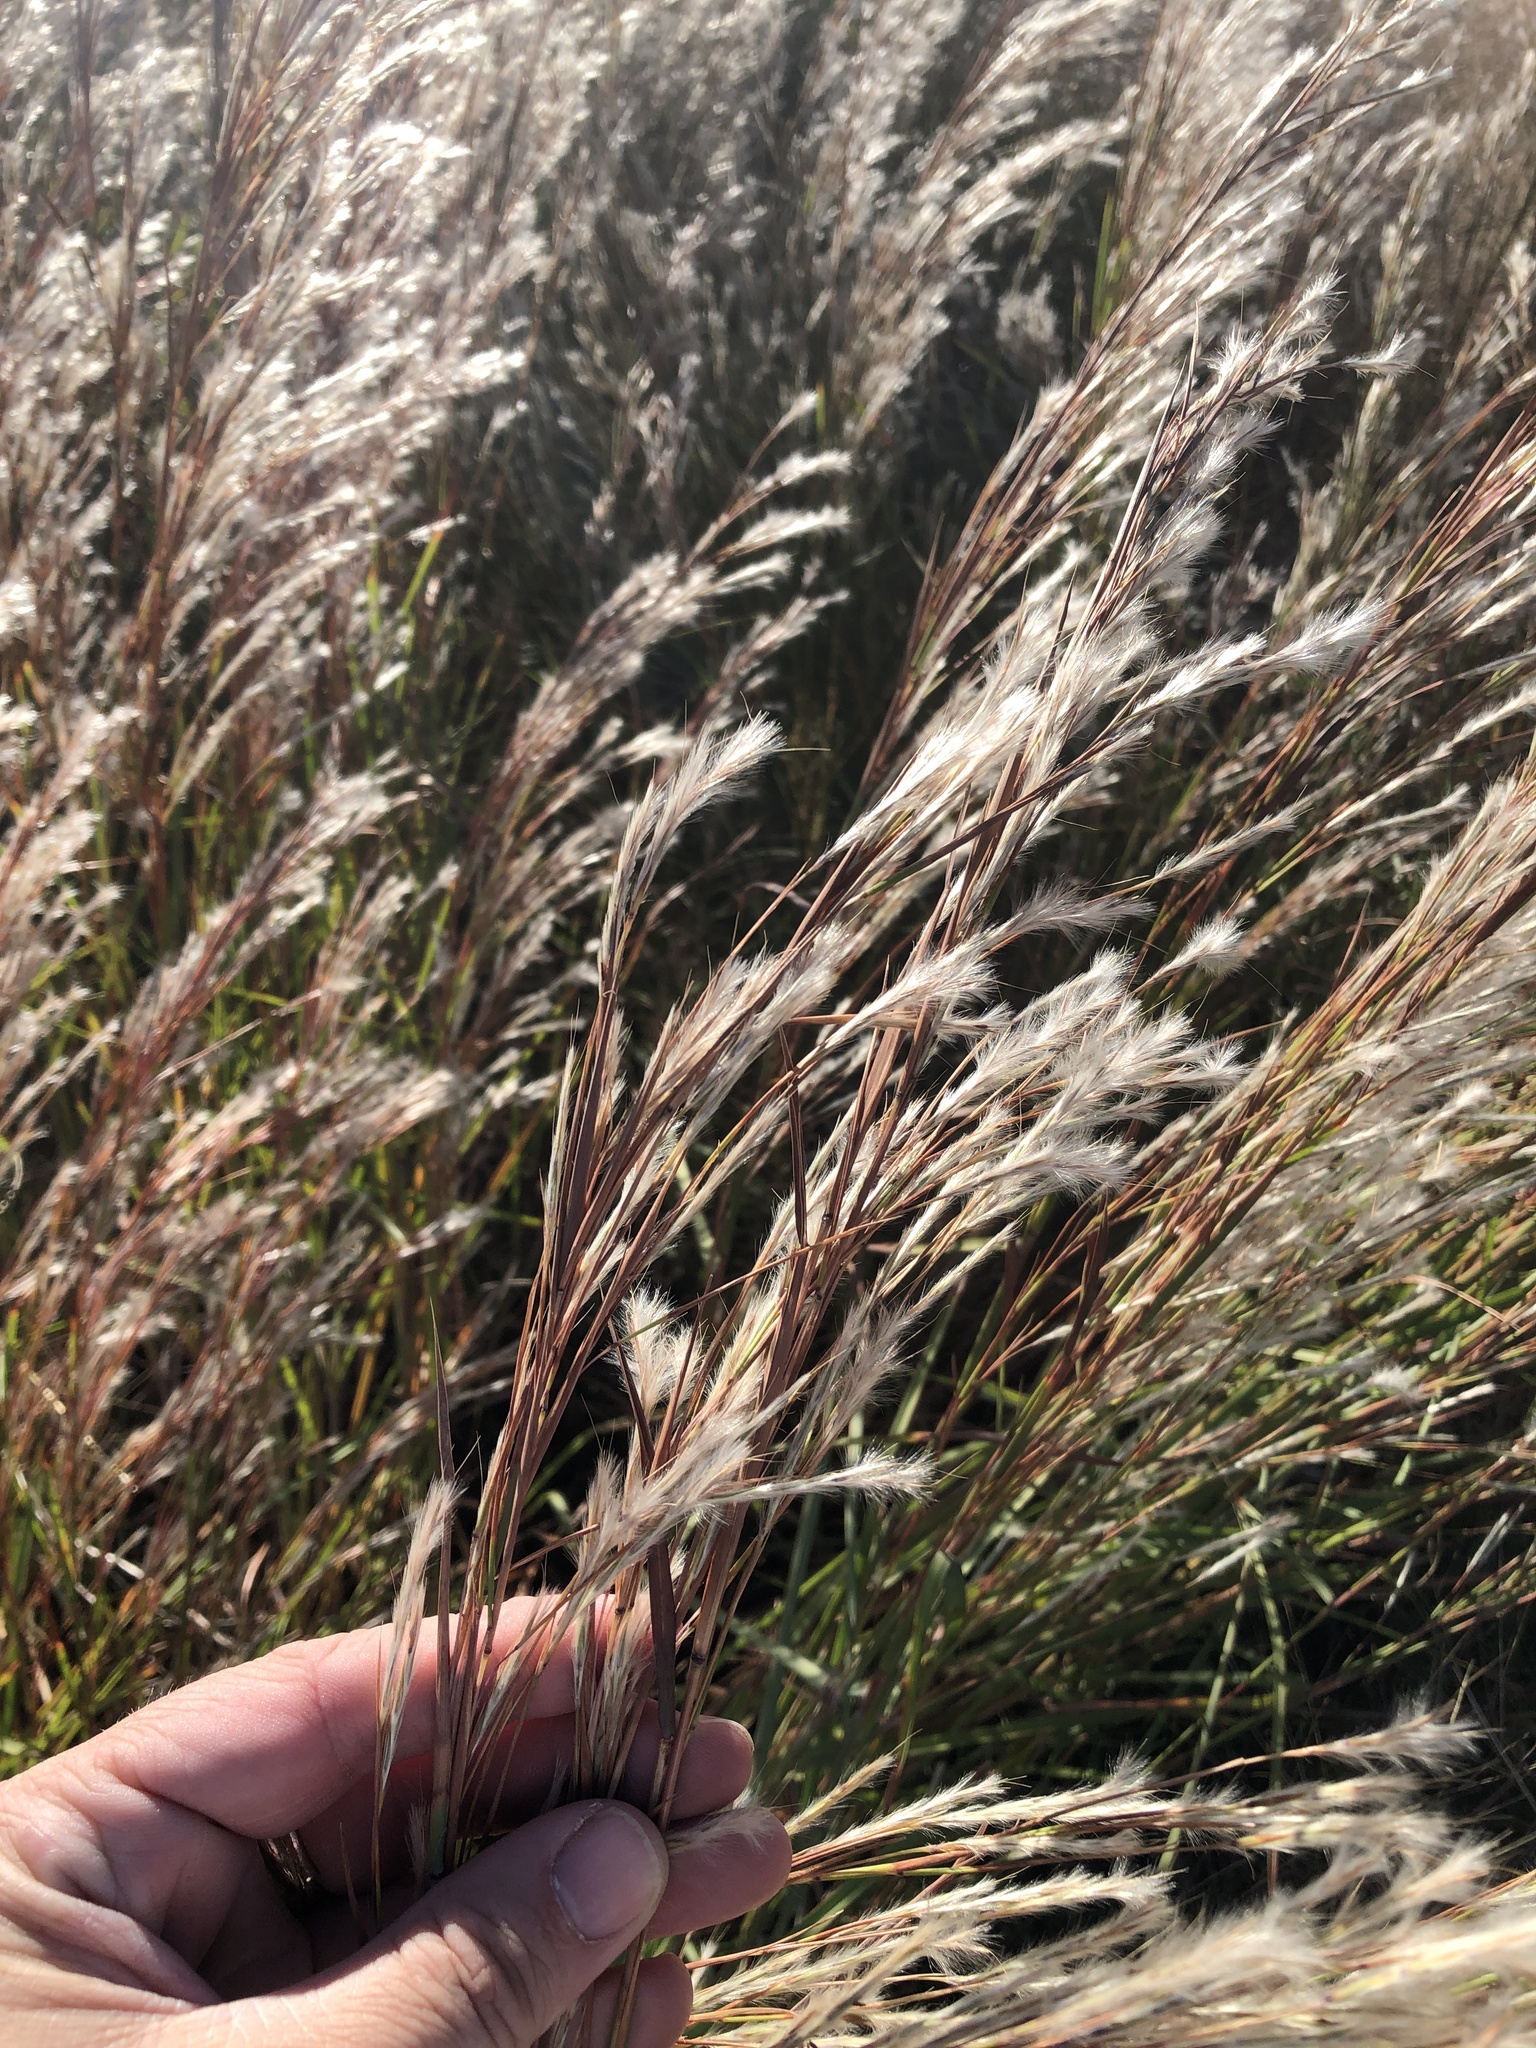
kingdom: Plantae
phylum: Tracheophyta
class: Liliopsida
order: Poales
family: Poaceae
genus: Schizachyrium
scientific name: Schizachyrium scoparium
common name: Little bluestem
